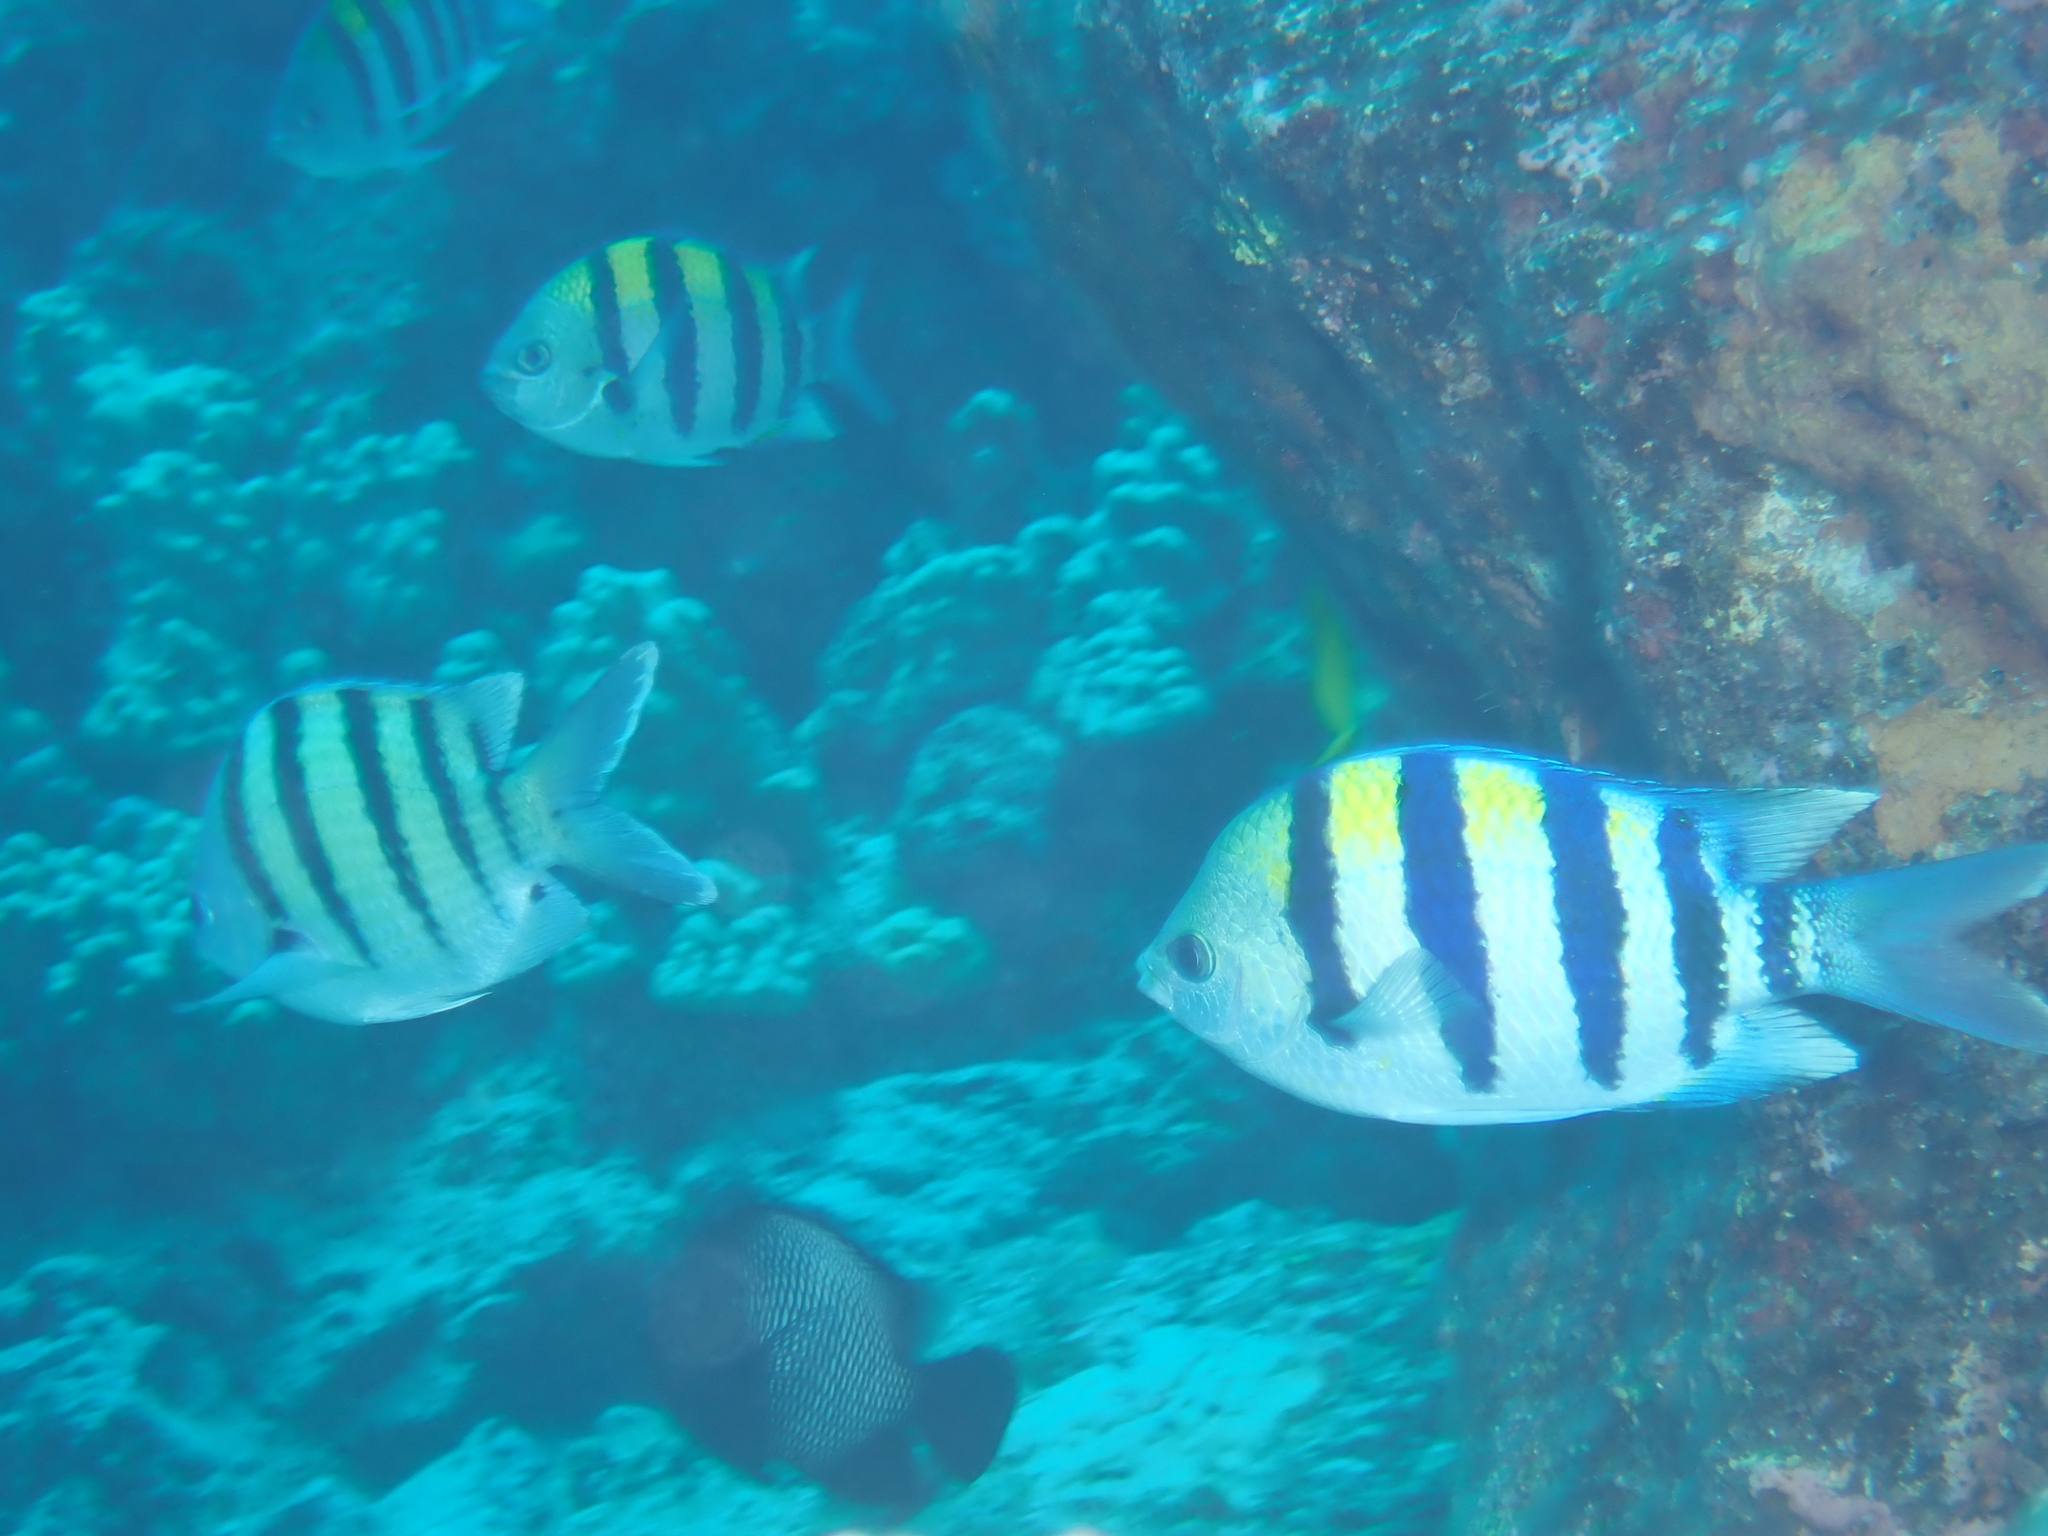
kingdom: Animalia
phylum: Chordata
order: Perciformes
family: Pomacentridae
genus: Abudefduf
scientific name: Abudefduf
